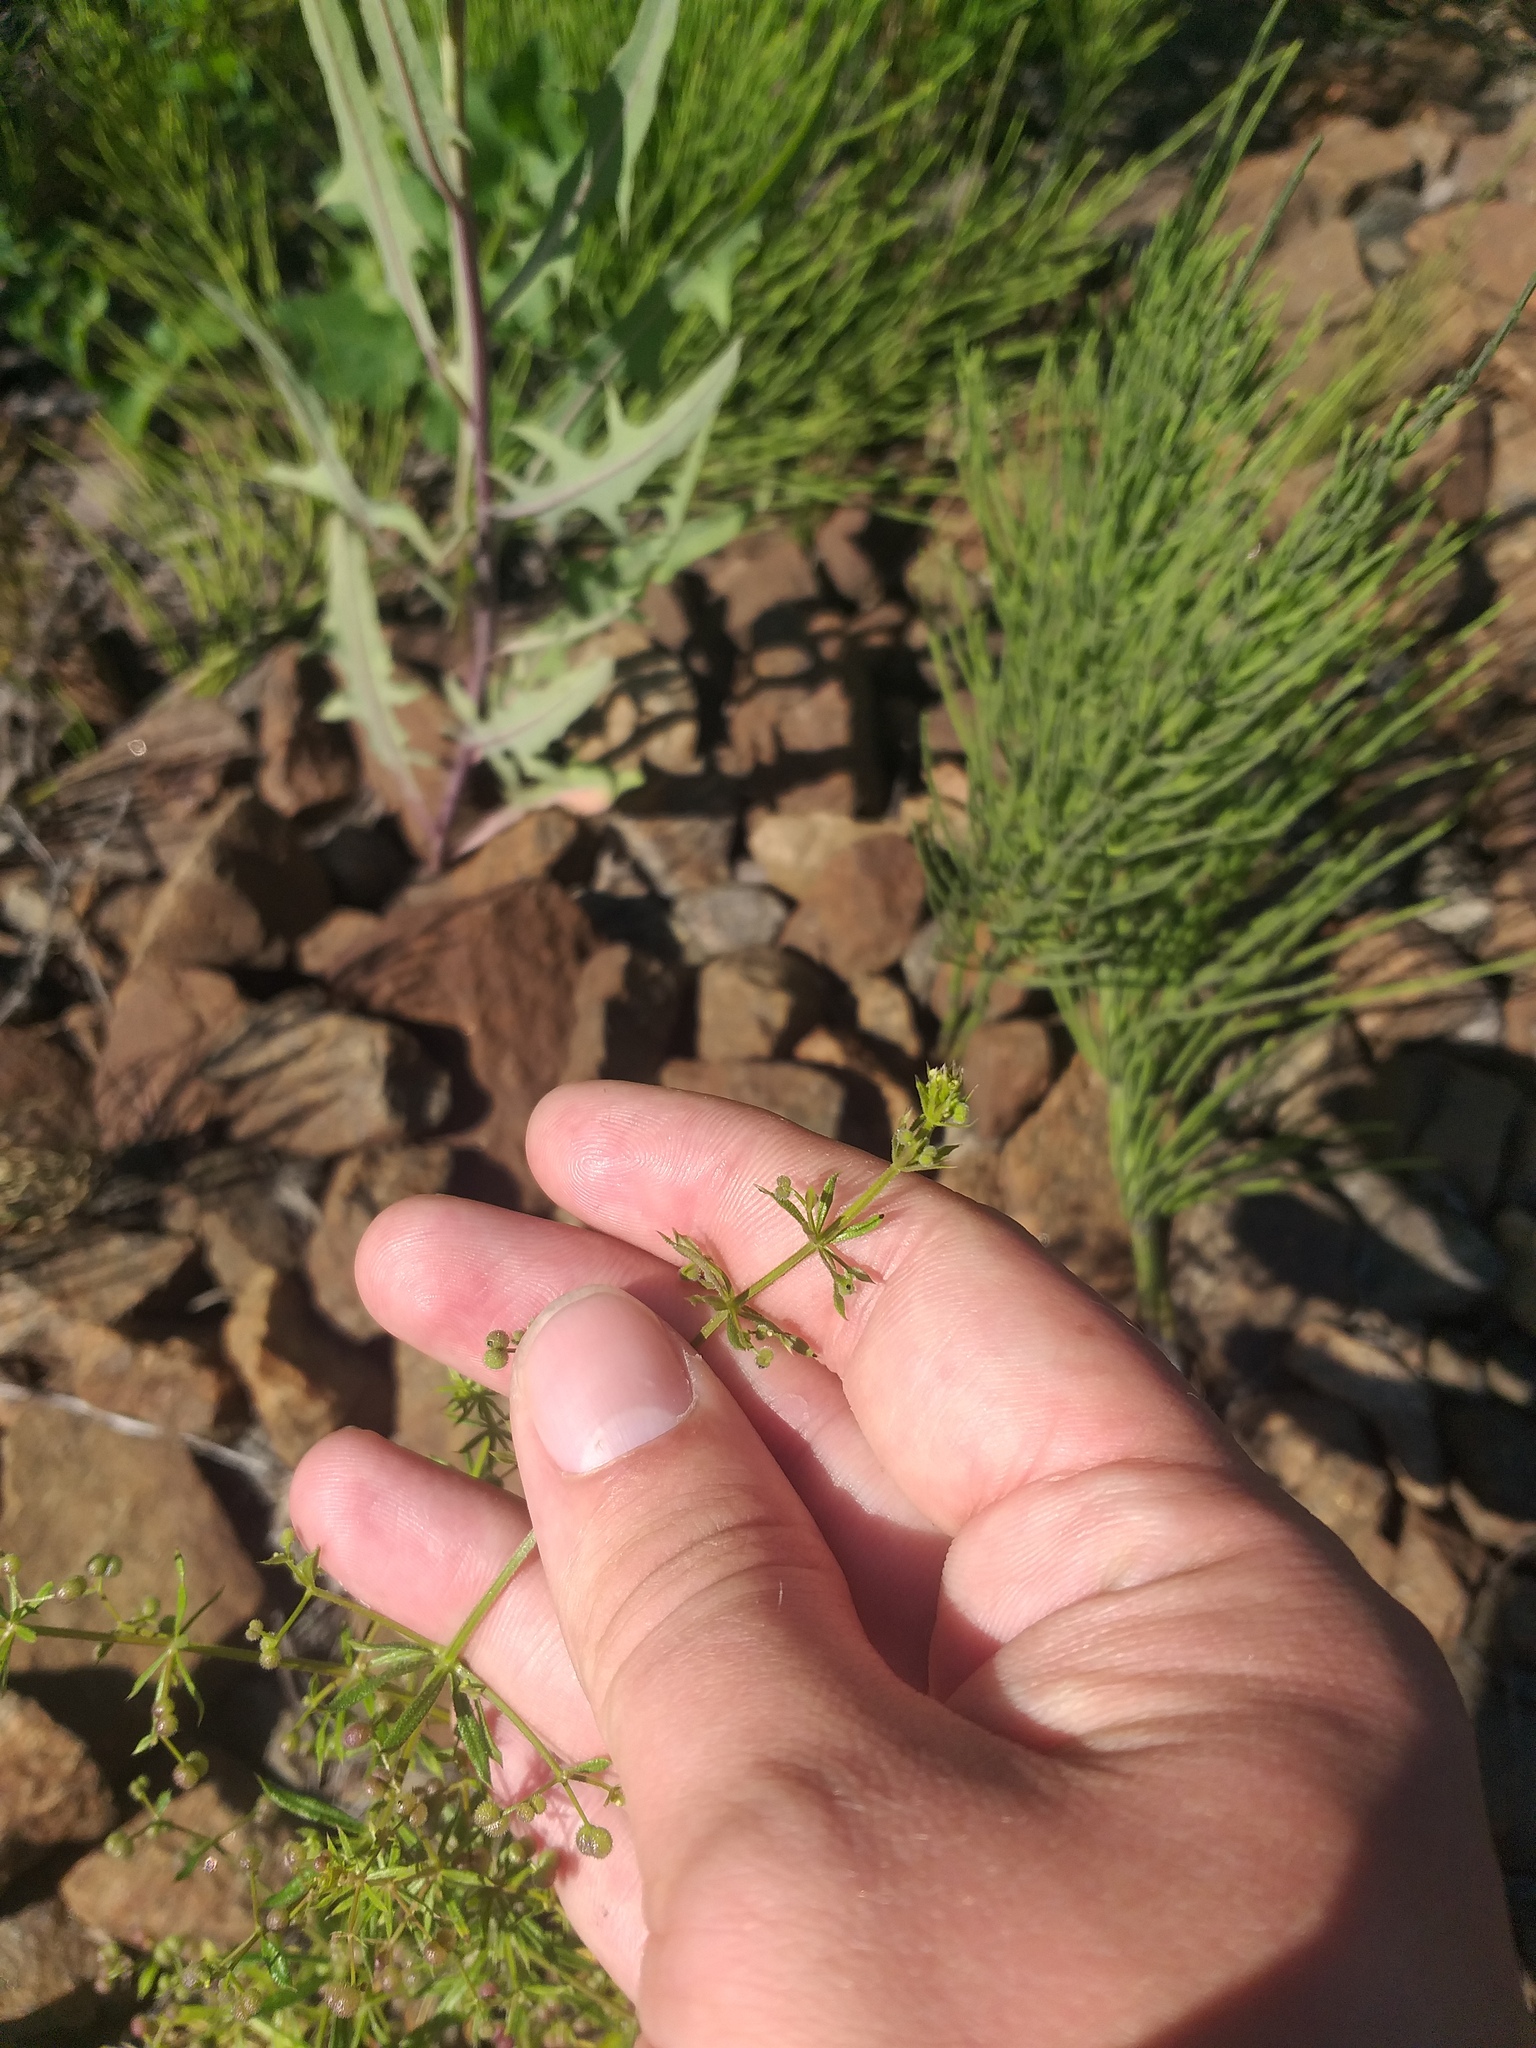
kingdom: Plantae
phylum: Tracheophyta
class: Magnoliopsida
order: Gentianales
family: Rubiaceae
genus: Galium
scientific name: Galium
